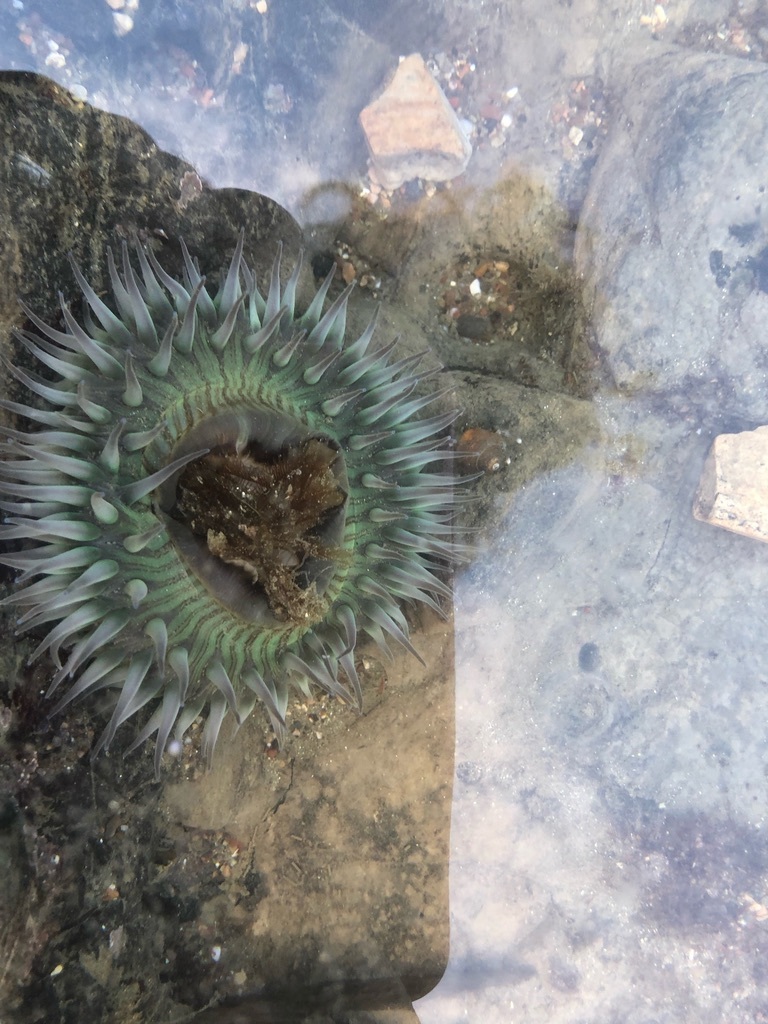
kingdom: Animalia
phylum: Cnidaria
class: Anthozoa
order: Actiniaria
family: Actiniidae
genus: Anthopleura
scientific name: Anthopleura sola
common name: Sun anemone
